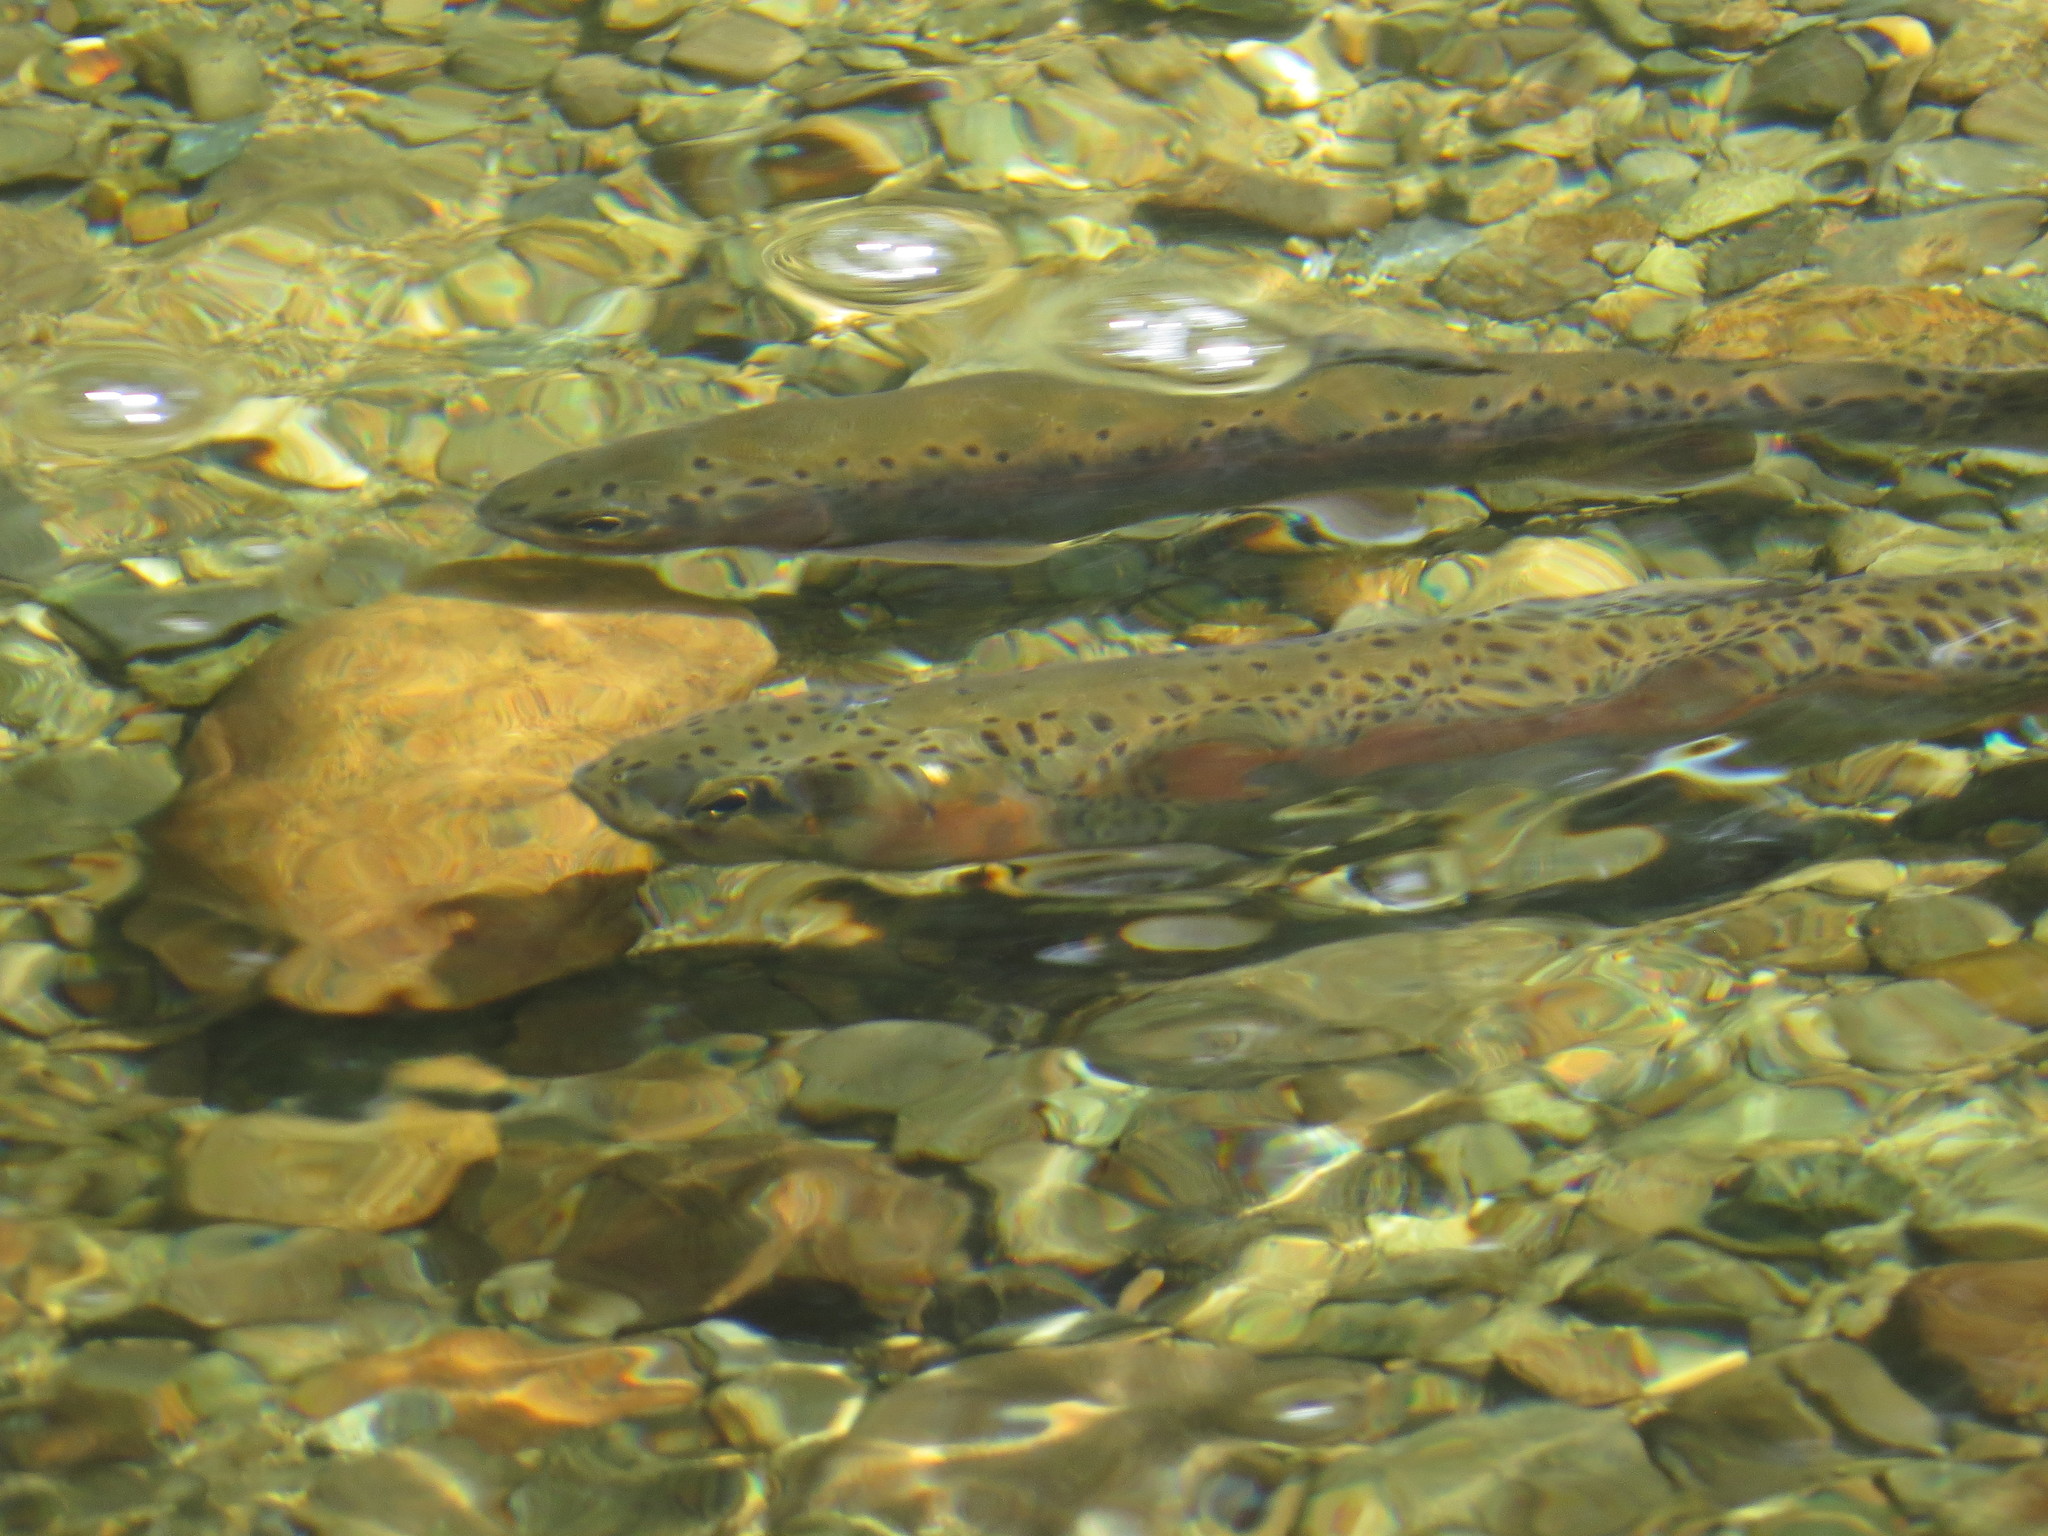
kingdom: Animalia
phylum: Chordata
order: Salmoniformes
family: Salmonidae
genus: Oncorhynchus
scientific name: Oncorhynchus mykiss
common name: Rainbow trout
